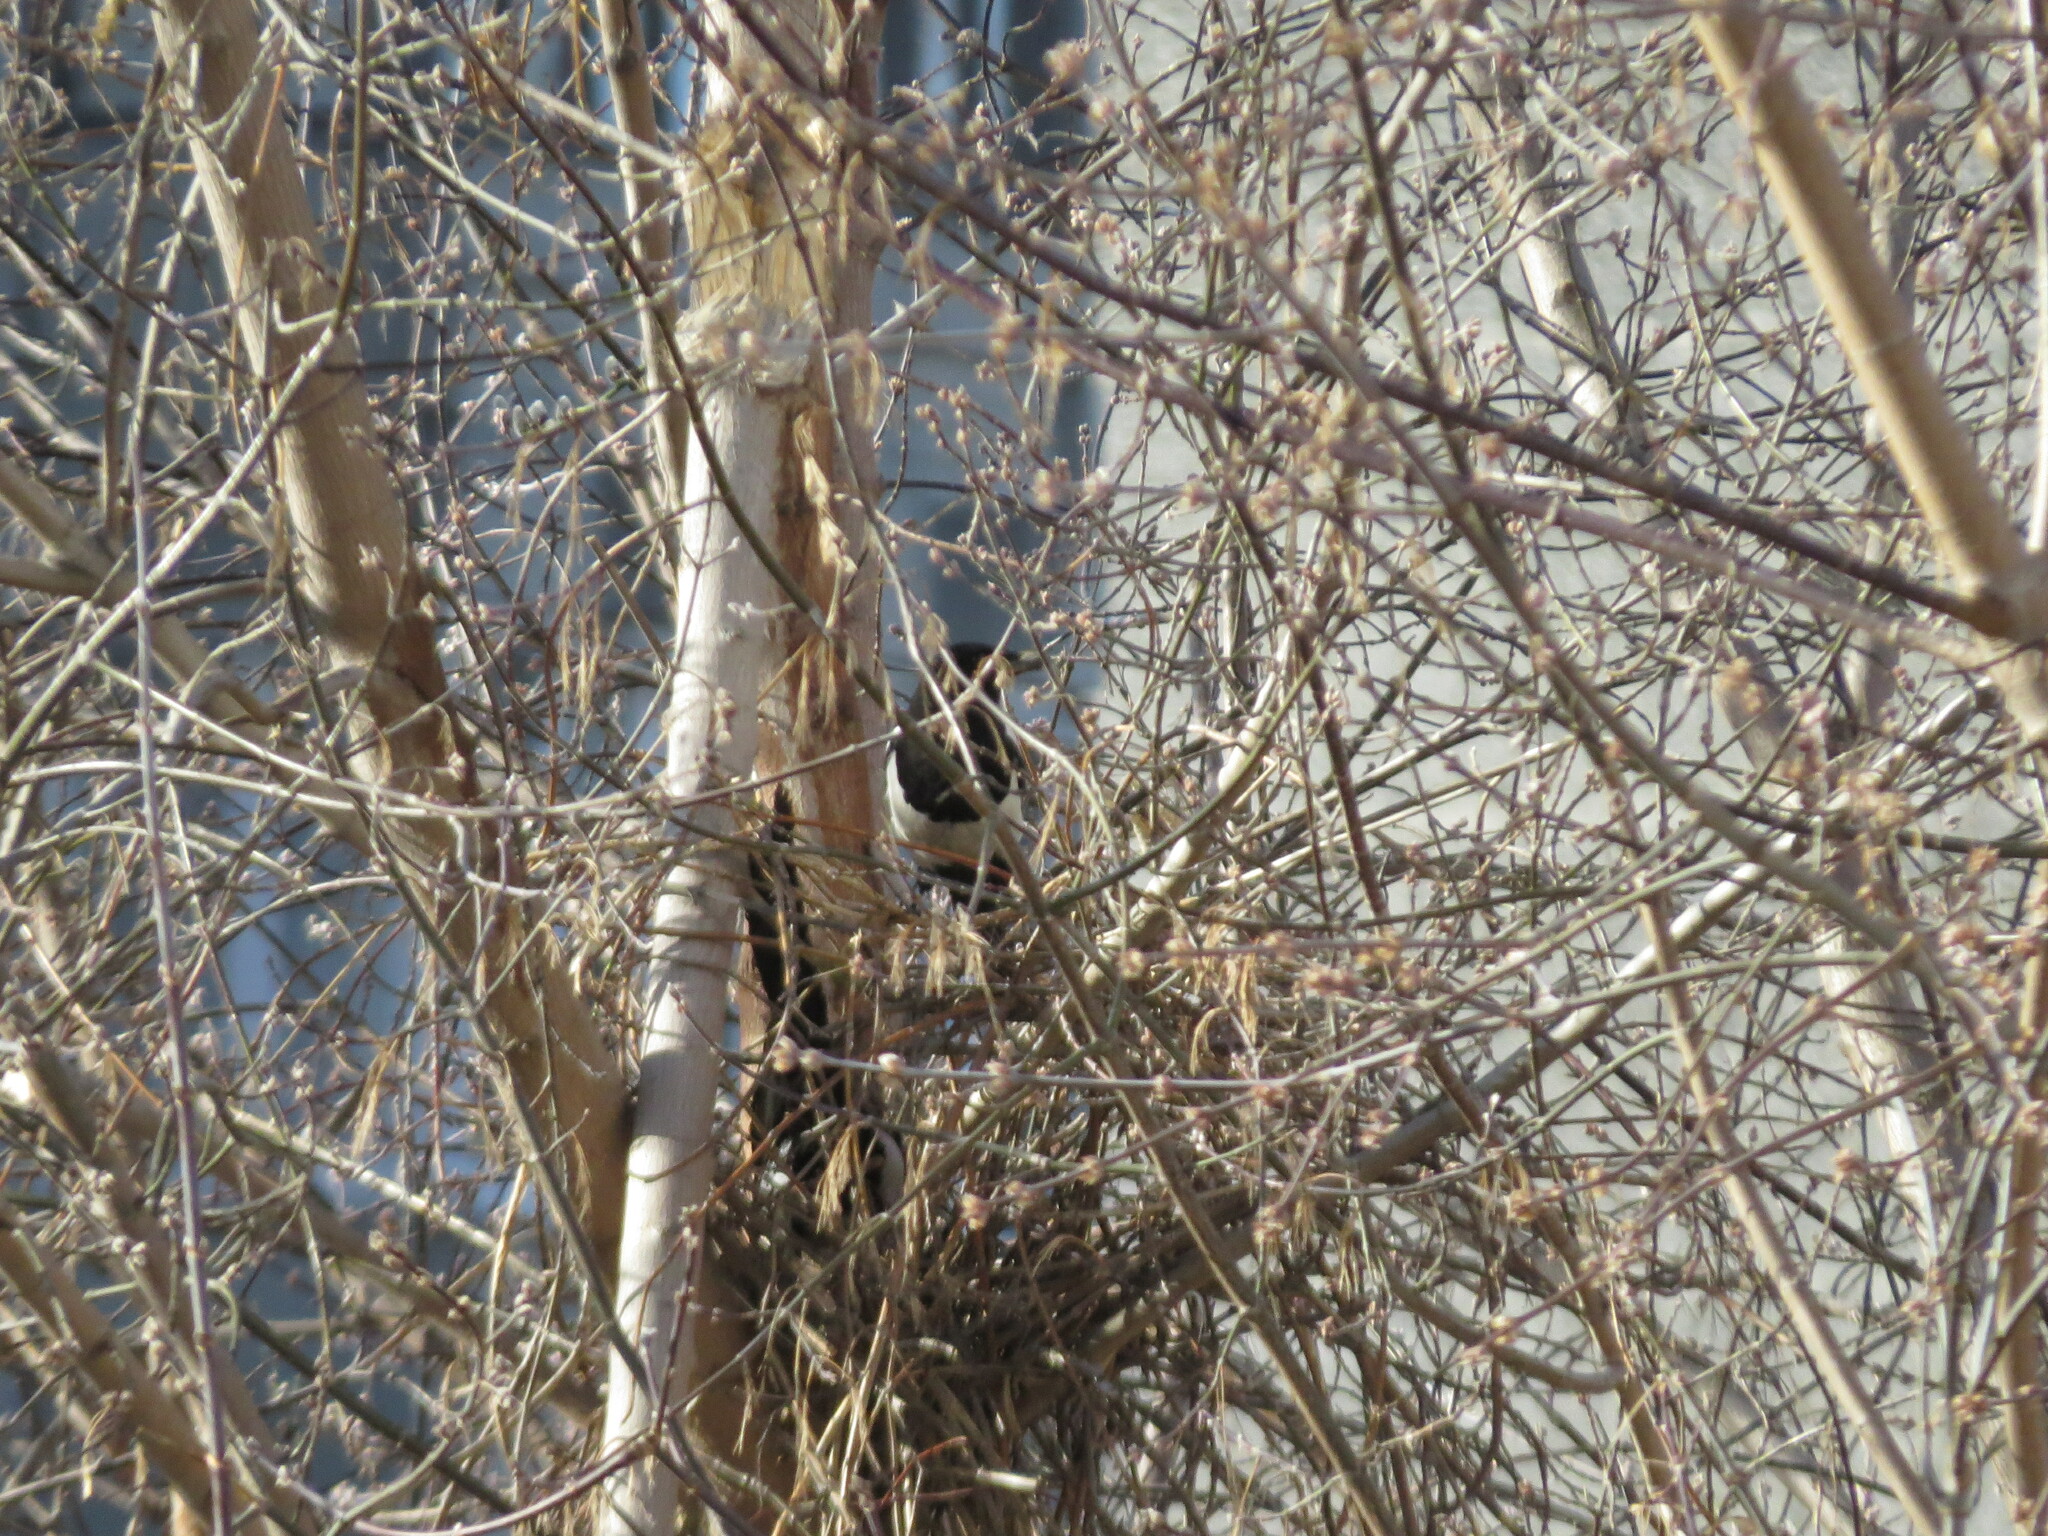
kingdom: Animalia
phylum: Chordata
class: Aves
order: Passeriformes
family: Corvidae
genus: Pica
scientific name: Pica pica
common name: Eurasian magpie
